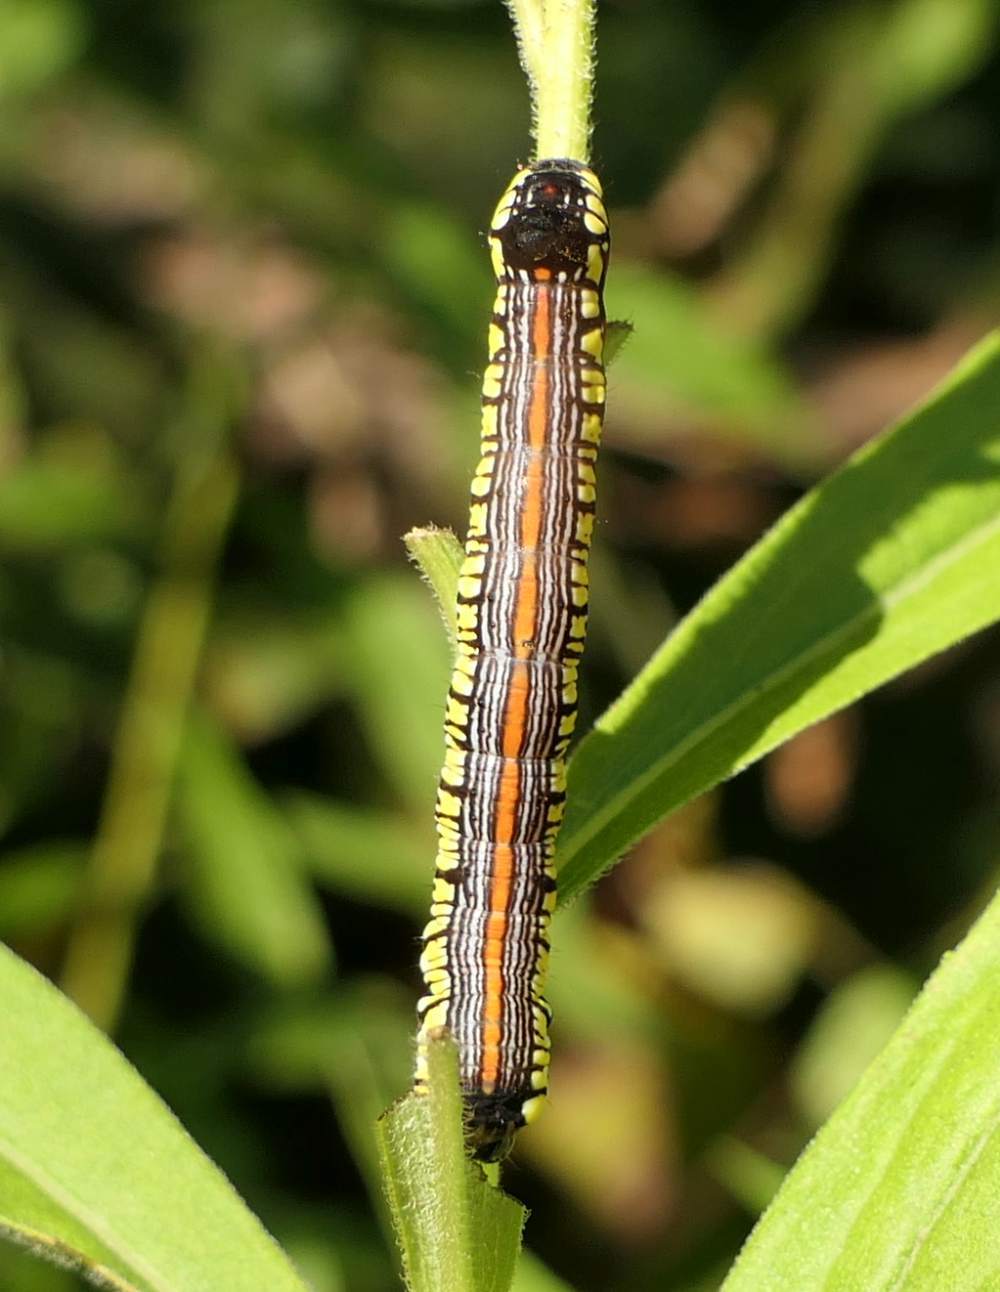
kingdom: Animalia
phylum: Arthropoda
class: Insecta
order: Lepidoptera
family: Noctuidae
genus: Cucullia
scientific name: Cucullia convexipennis
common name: Brown-hooded owlet
